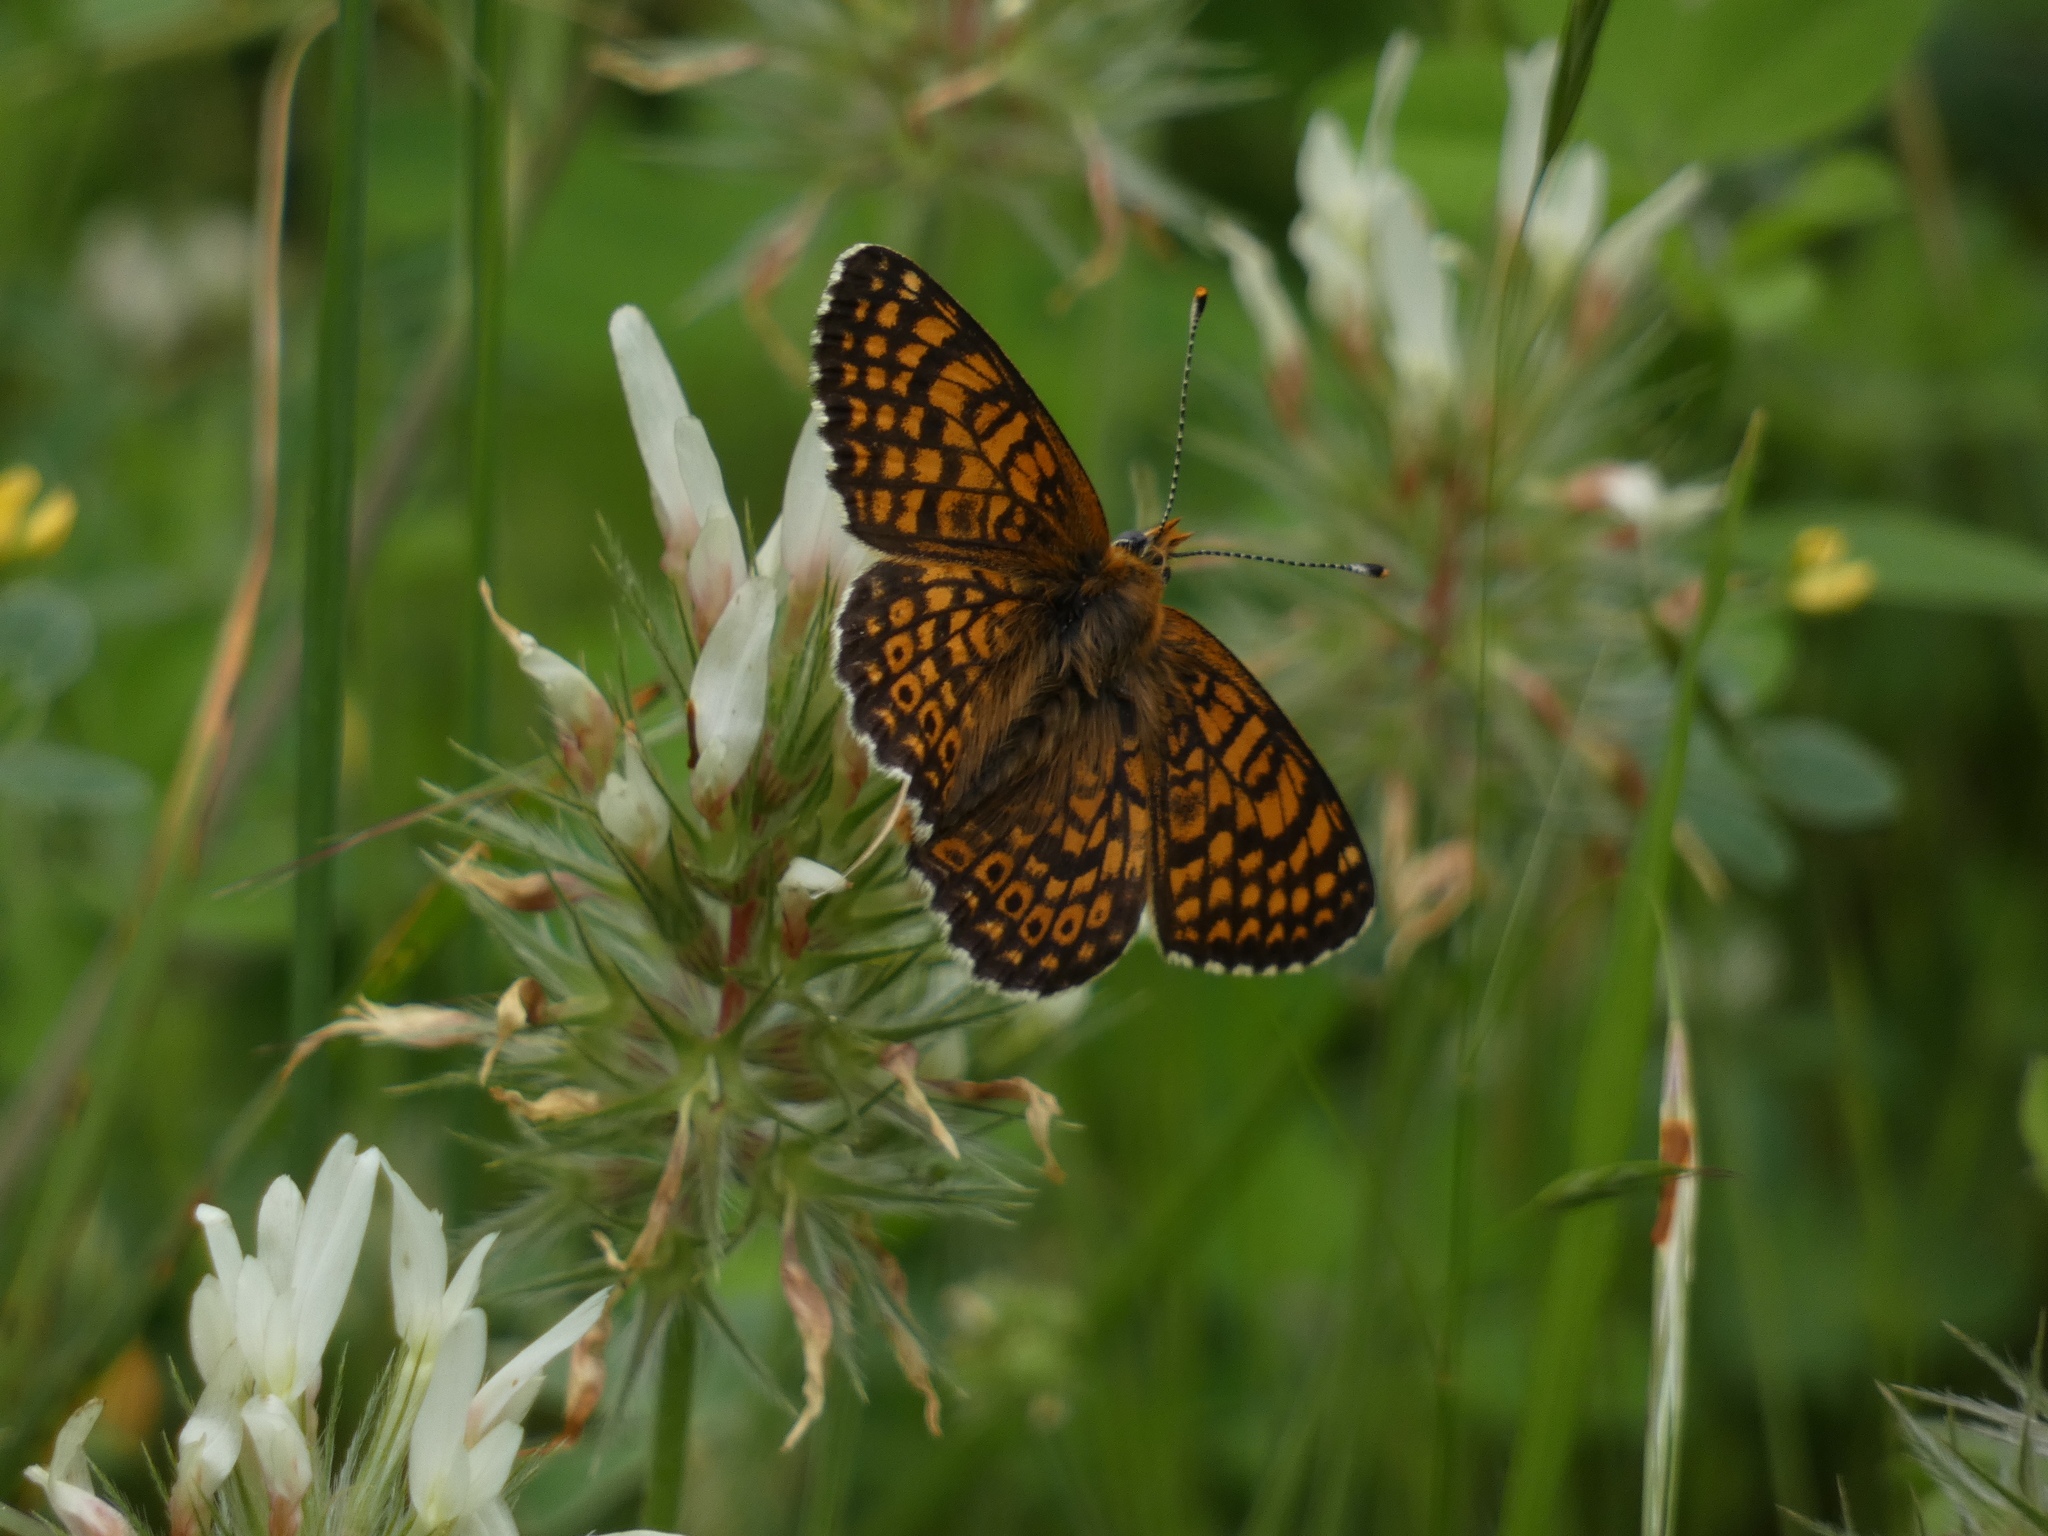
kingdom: Animalia
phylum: Arthropoda
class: Insecta
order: Lepidoptera
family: Nymphalidae
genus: Melitaea
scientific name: Melitaea cinxia
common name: Glanville fritillary
